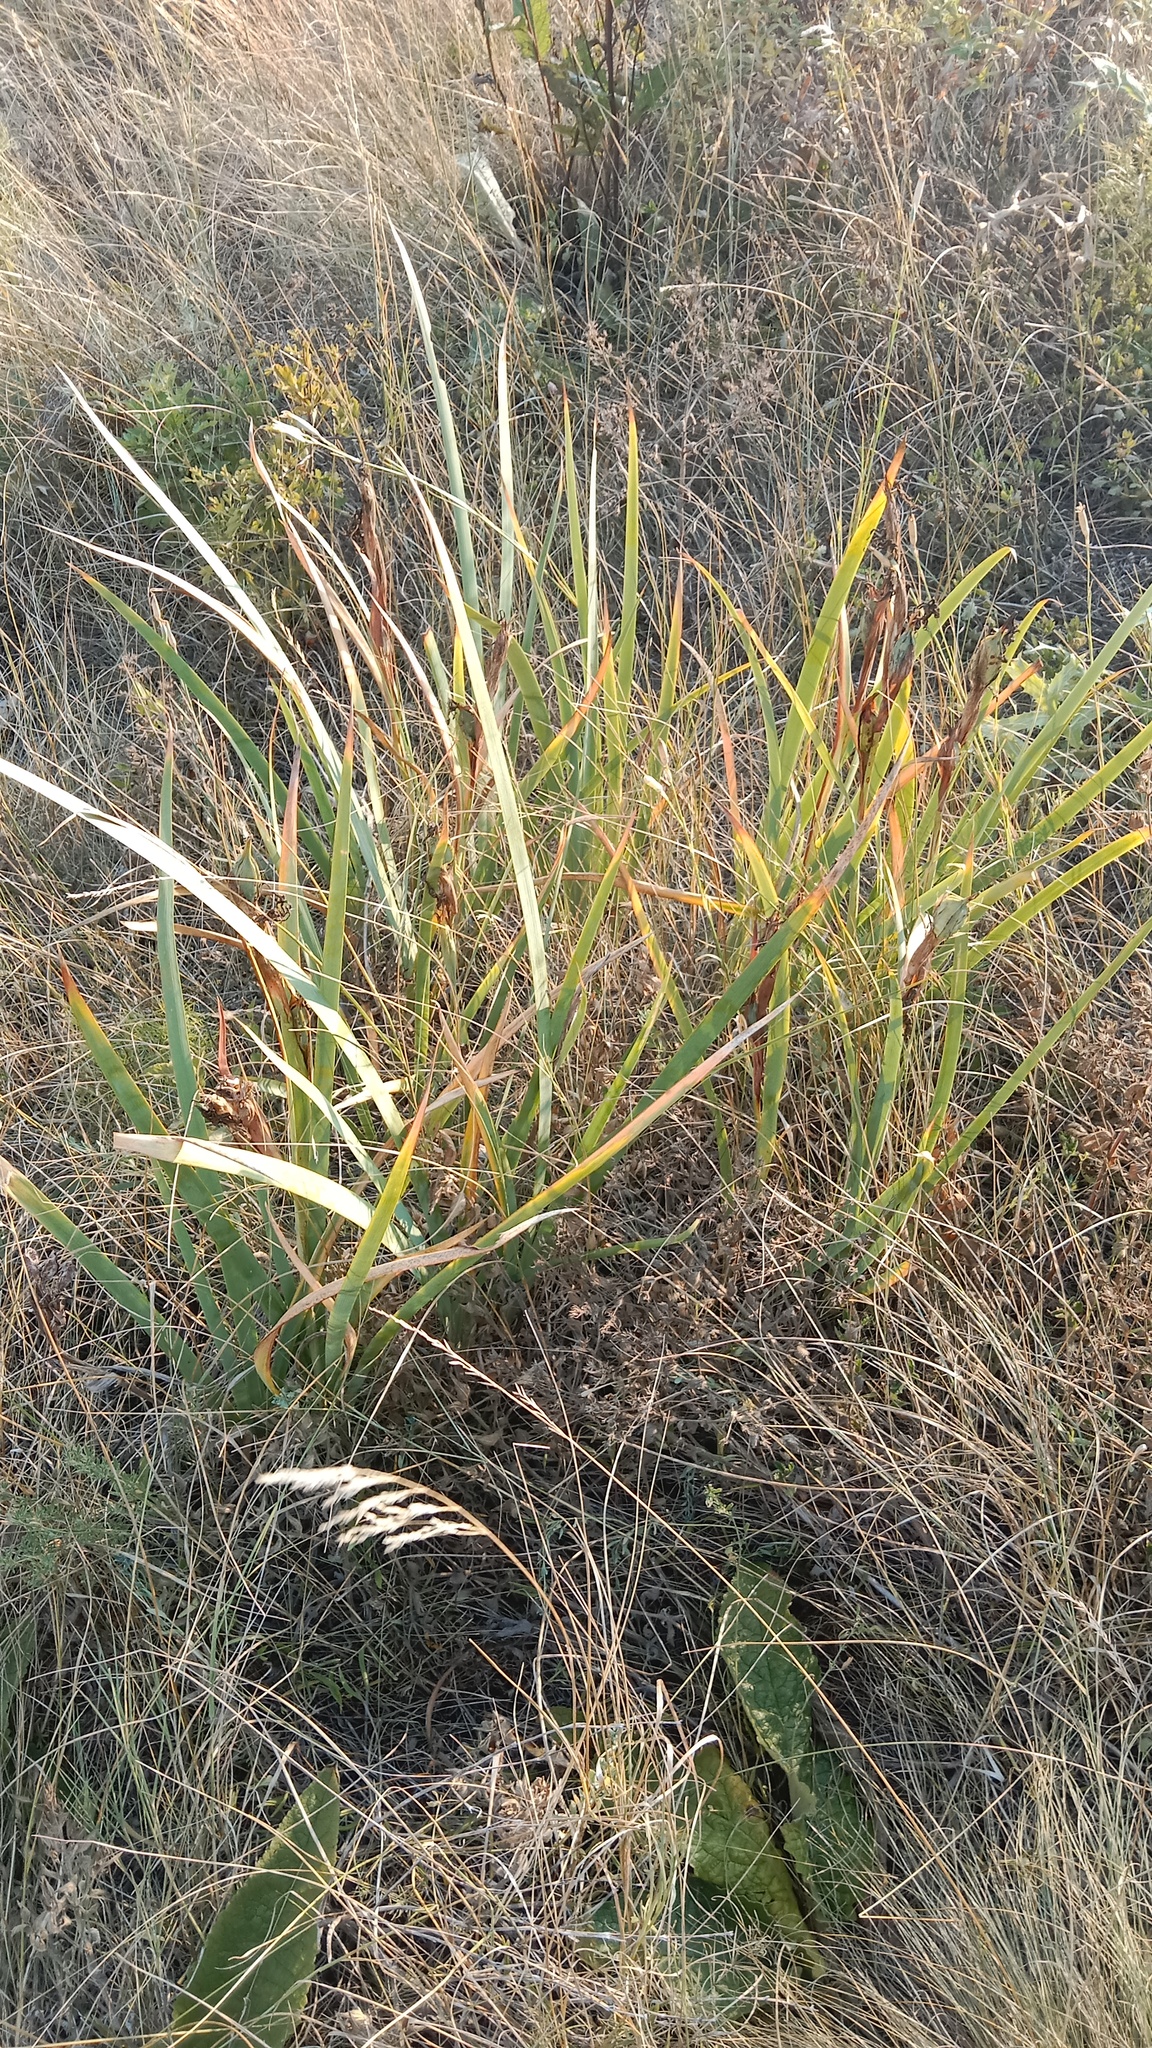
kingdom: Plantae
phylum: Tracheophyta
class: Liliopsida
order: Asparagales
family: Iridaceae
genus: Iris
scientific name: Iris halophila
